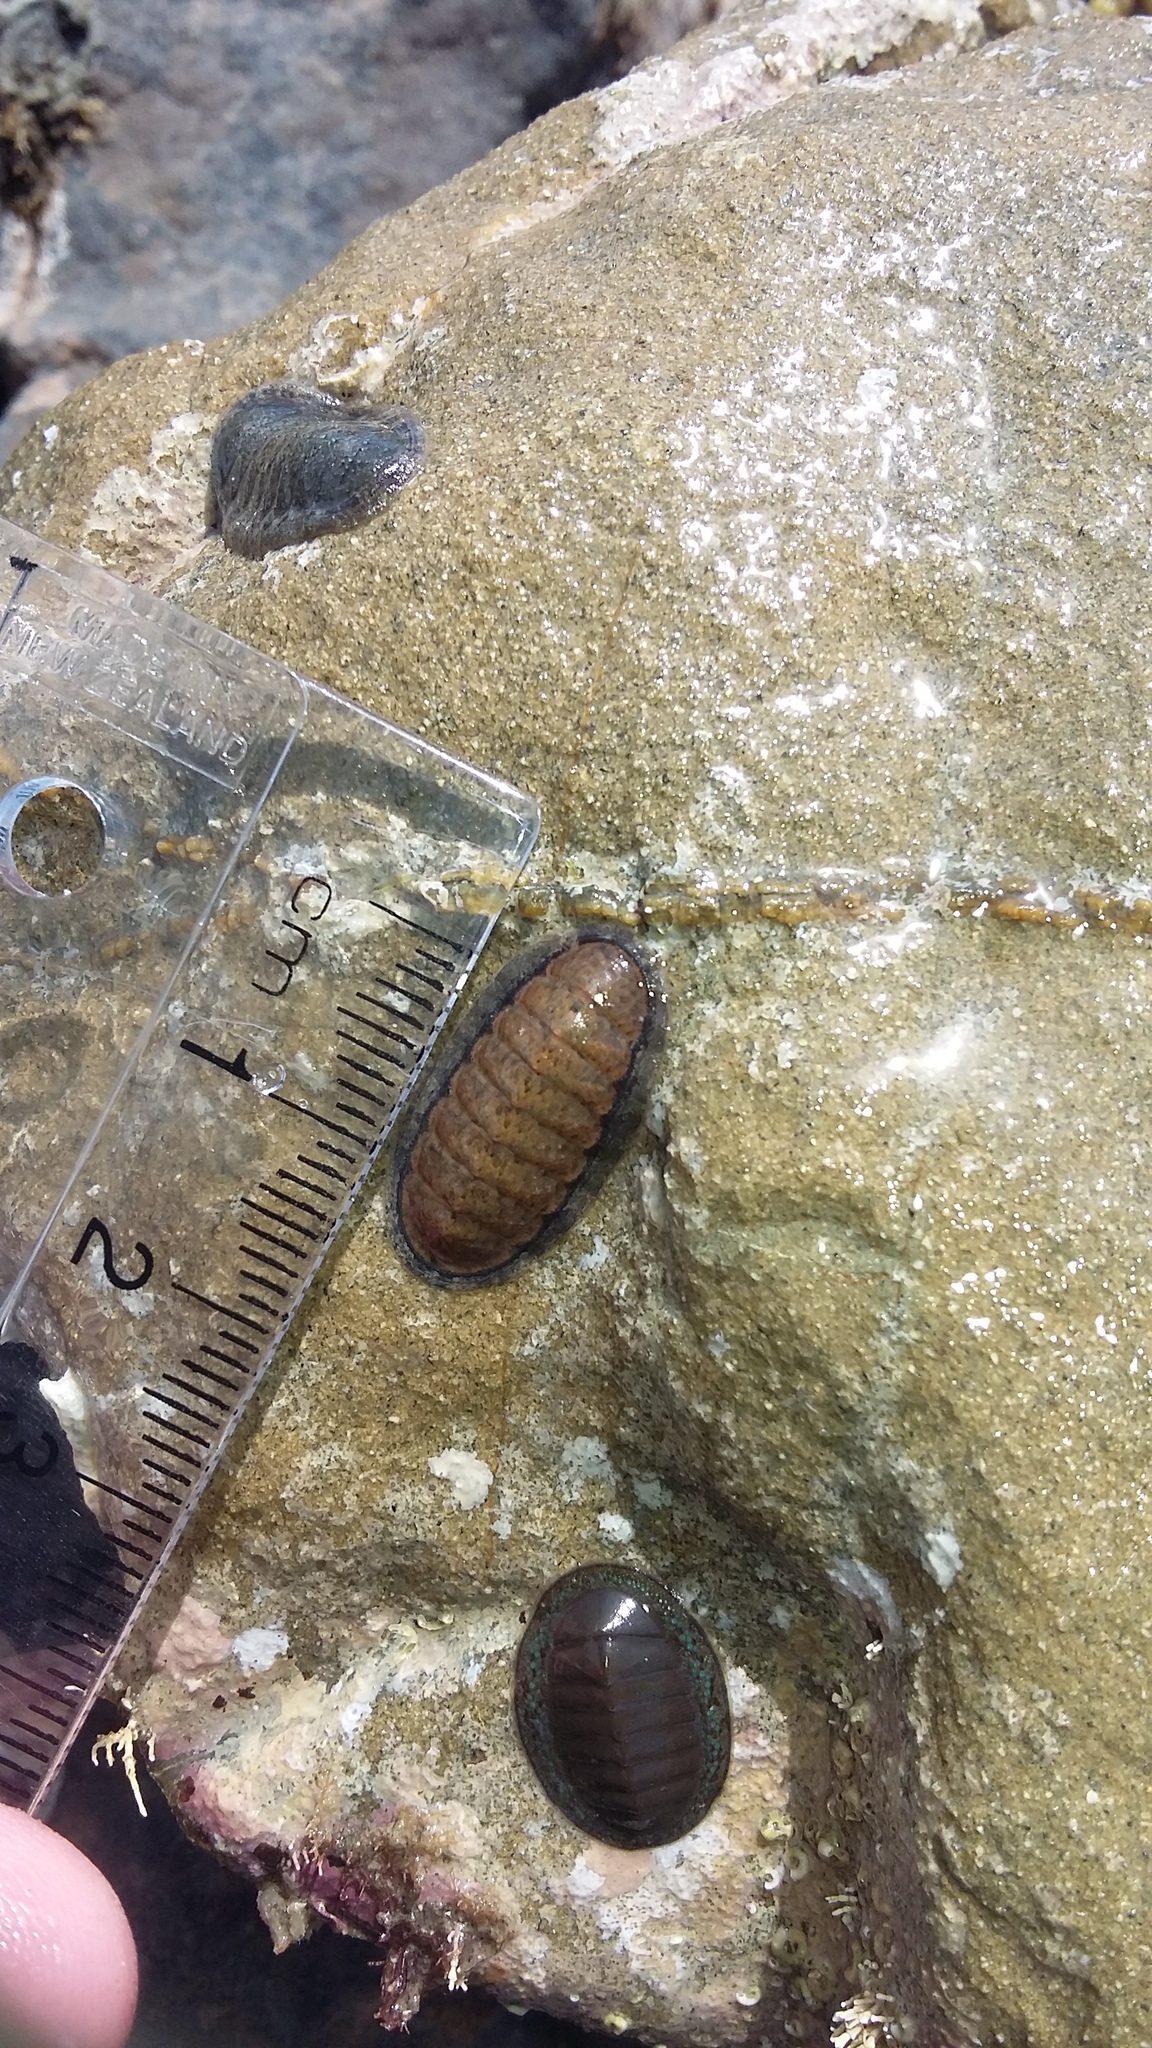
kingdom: Animalia
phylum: Mollusca
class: Polyplacophora
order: Chitonida
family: Ischnochitonidae
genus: Ischnochiton
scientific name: Ischnochiton maorianus
